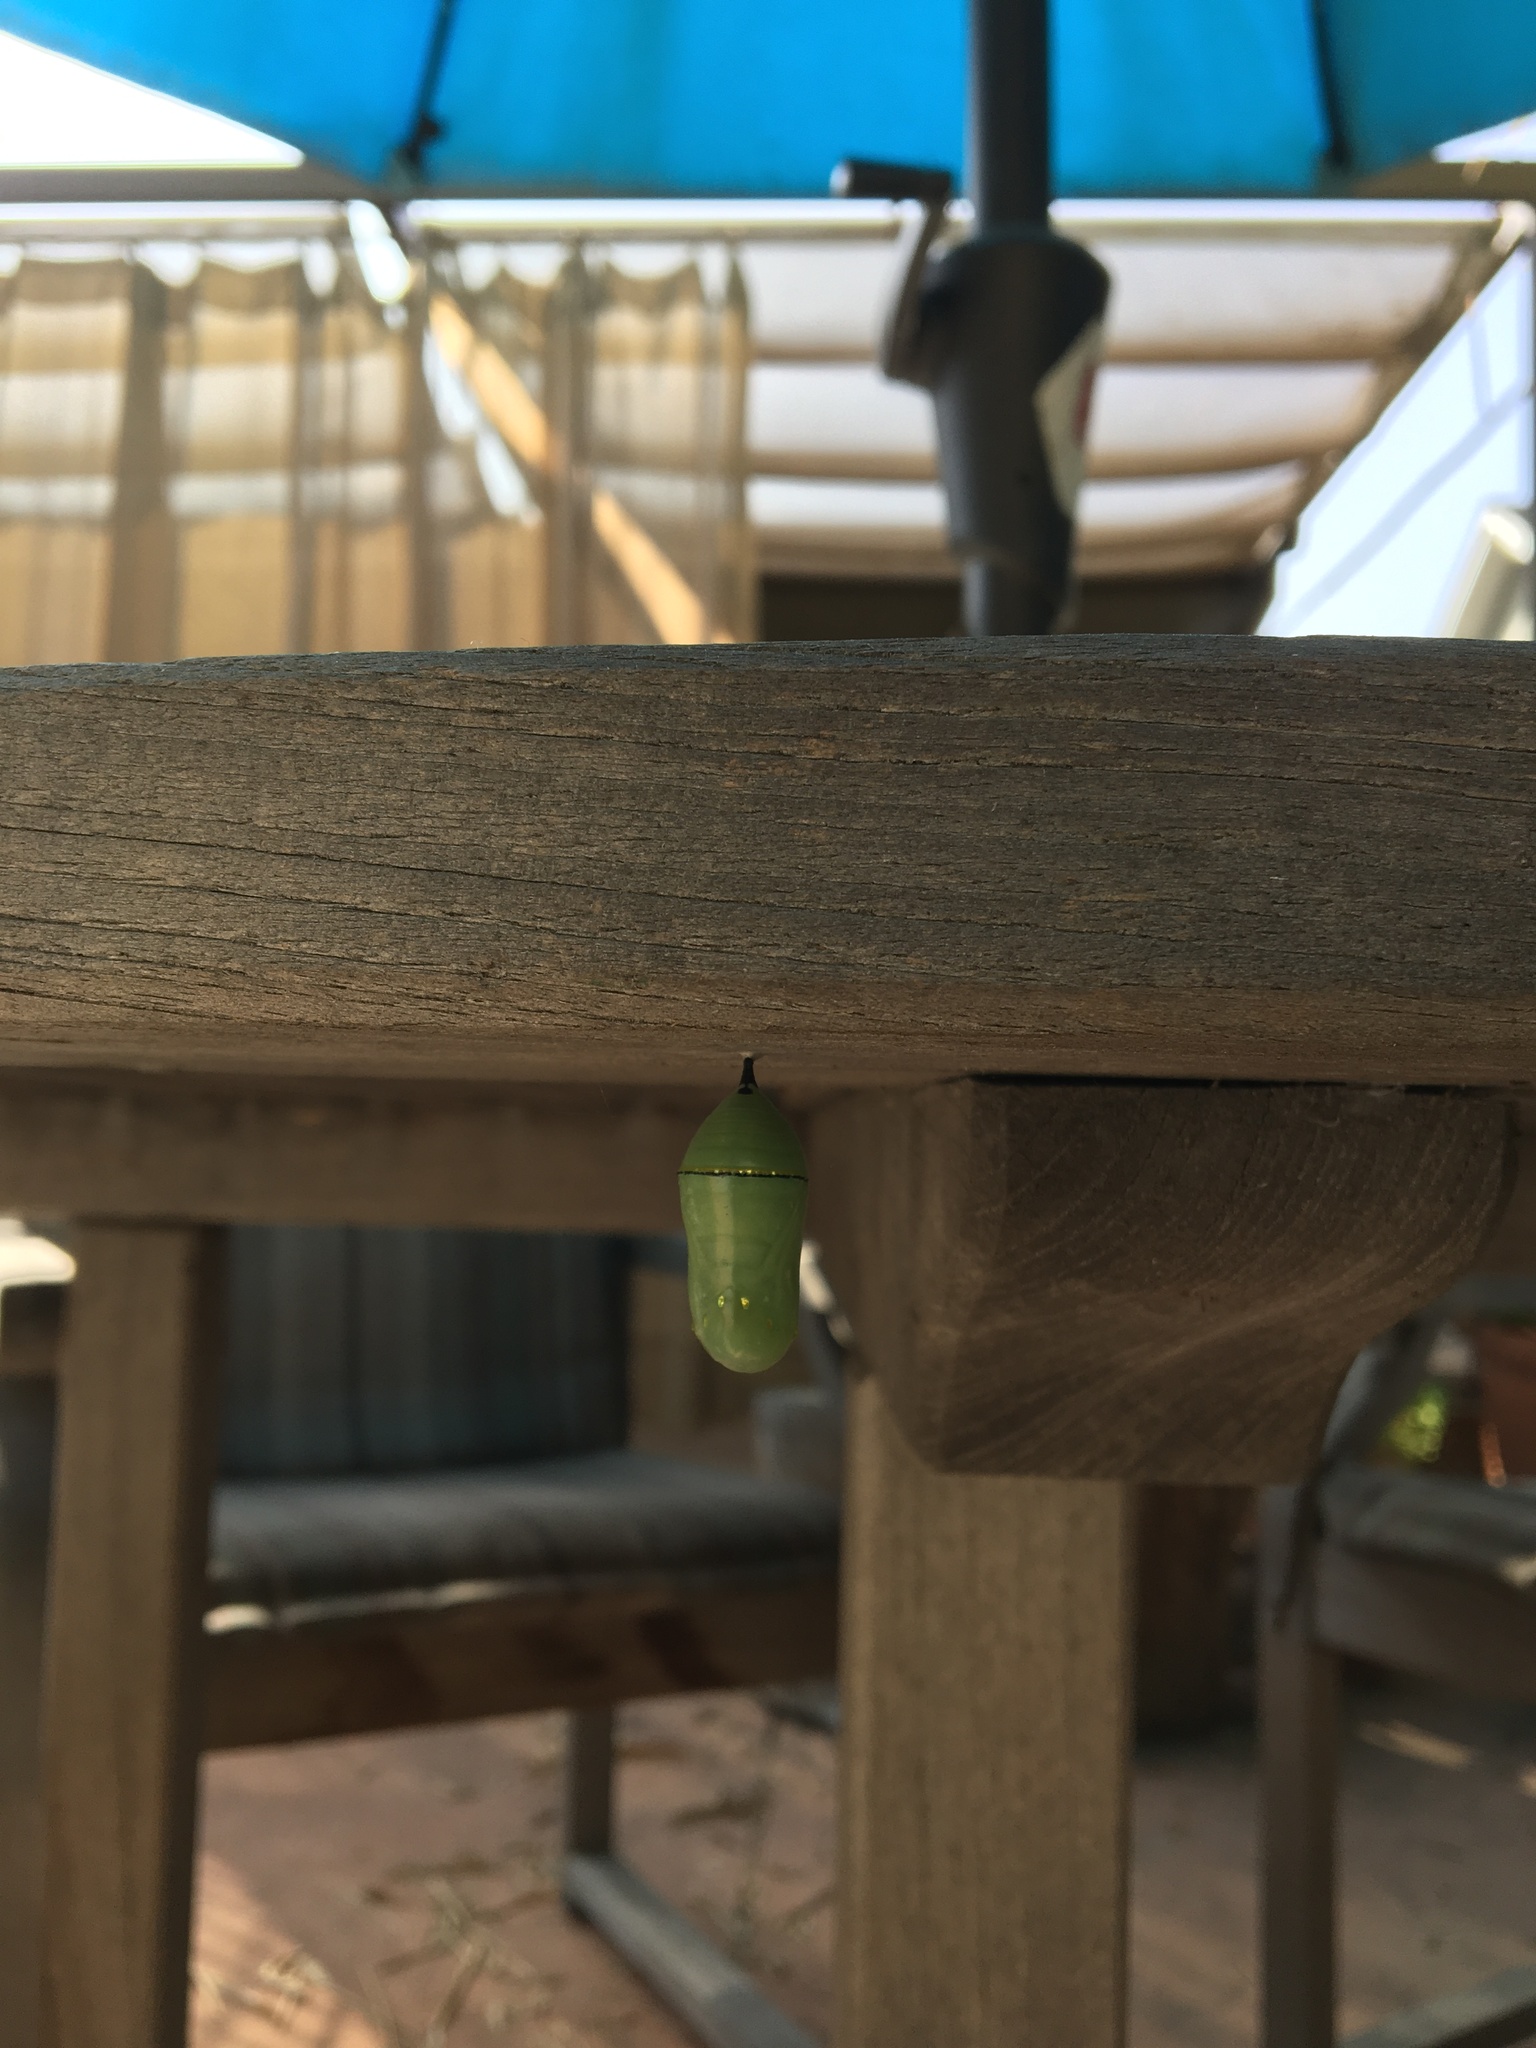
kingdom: Animalia
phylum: Arthropoda
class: Insecta
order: Lepidoptera
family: Nymphalidae
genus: Danaus
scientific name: Danaus plexippus
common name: Monarch
